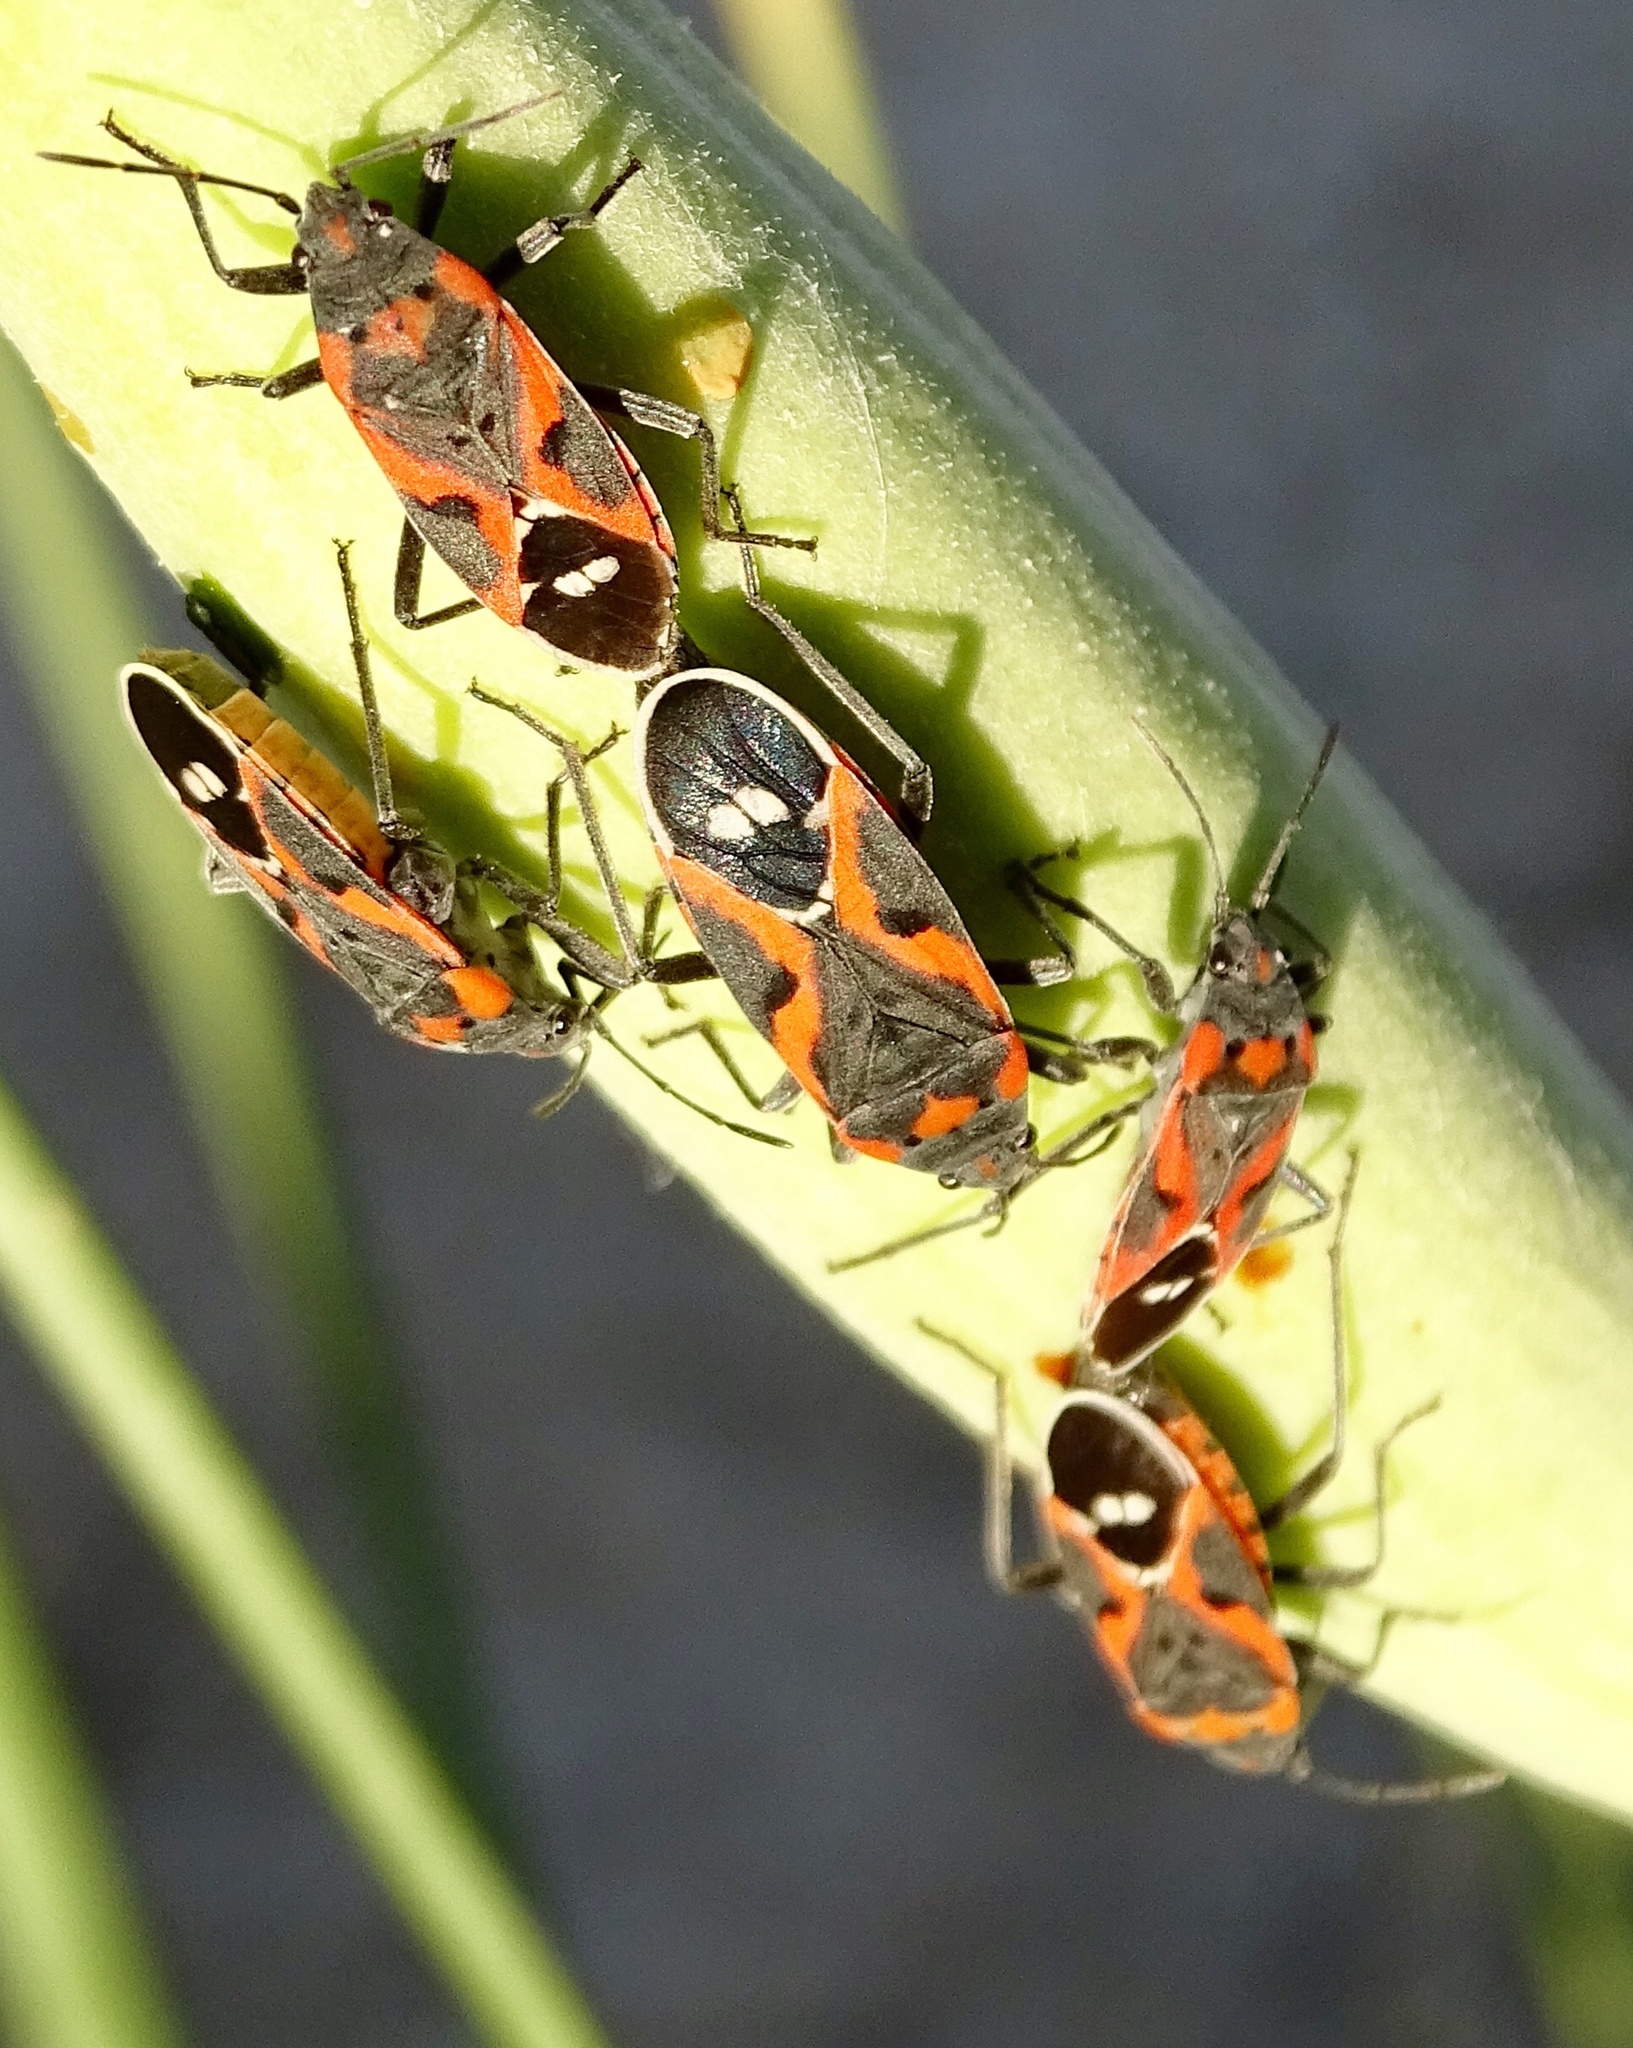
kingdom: Animalia
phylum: Arthropoda
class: Insecta
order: Hemiptera
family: Lygaeidae
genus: Lygaeus
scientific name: Lygaeus kalmii
